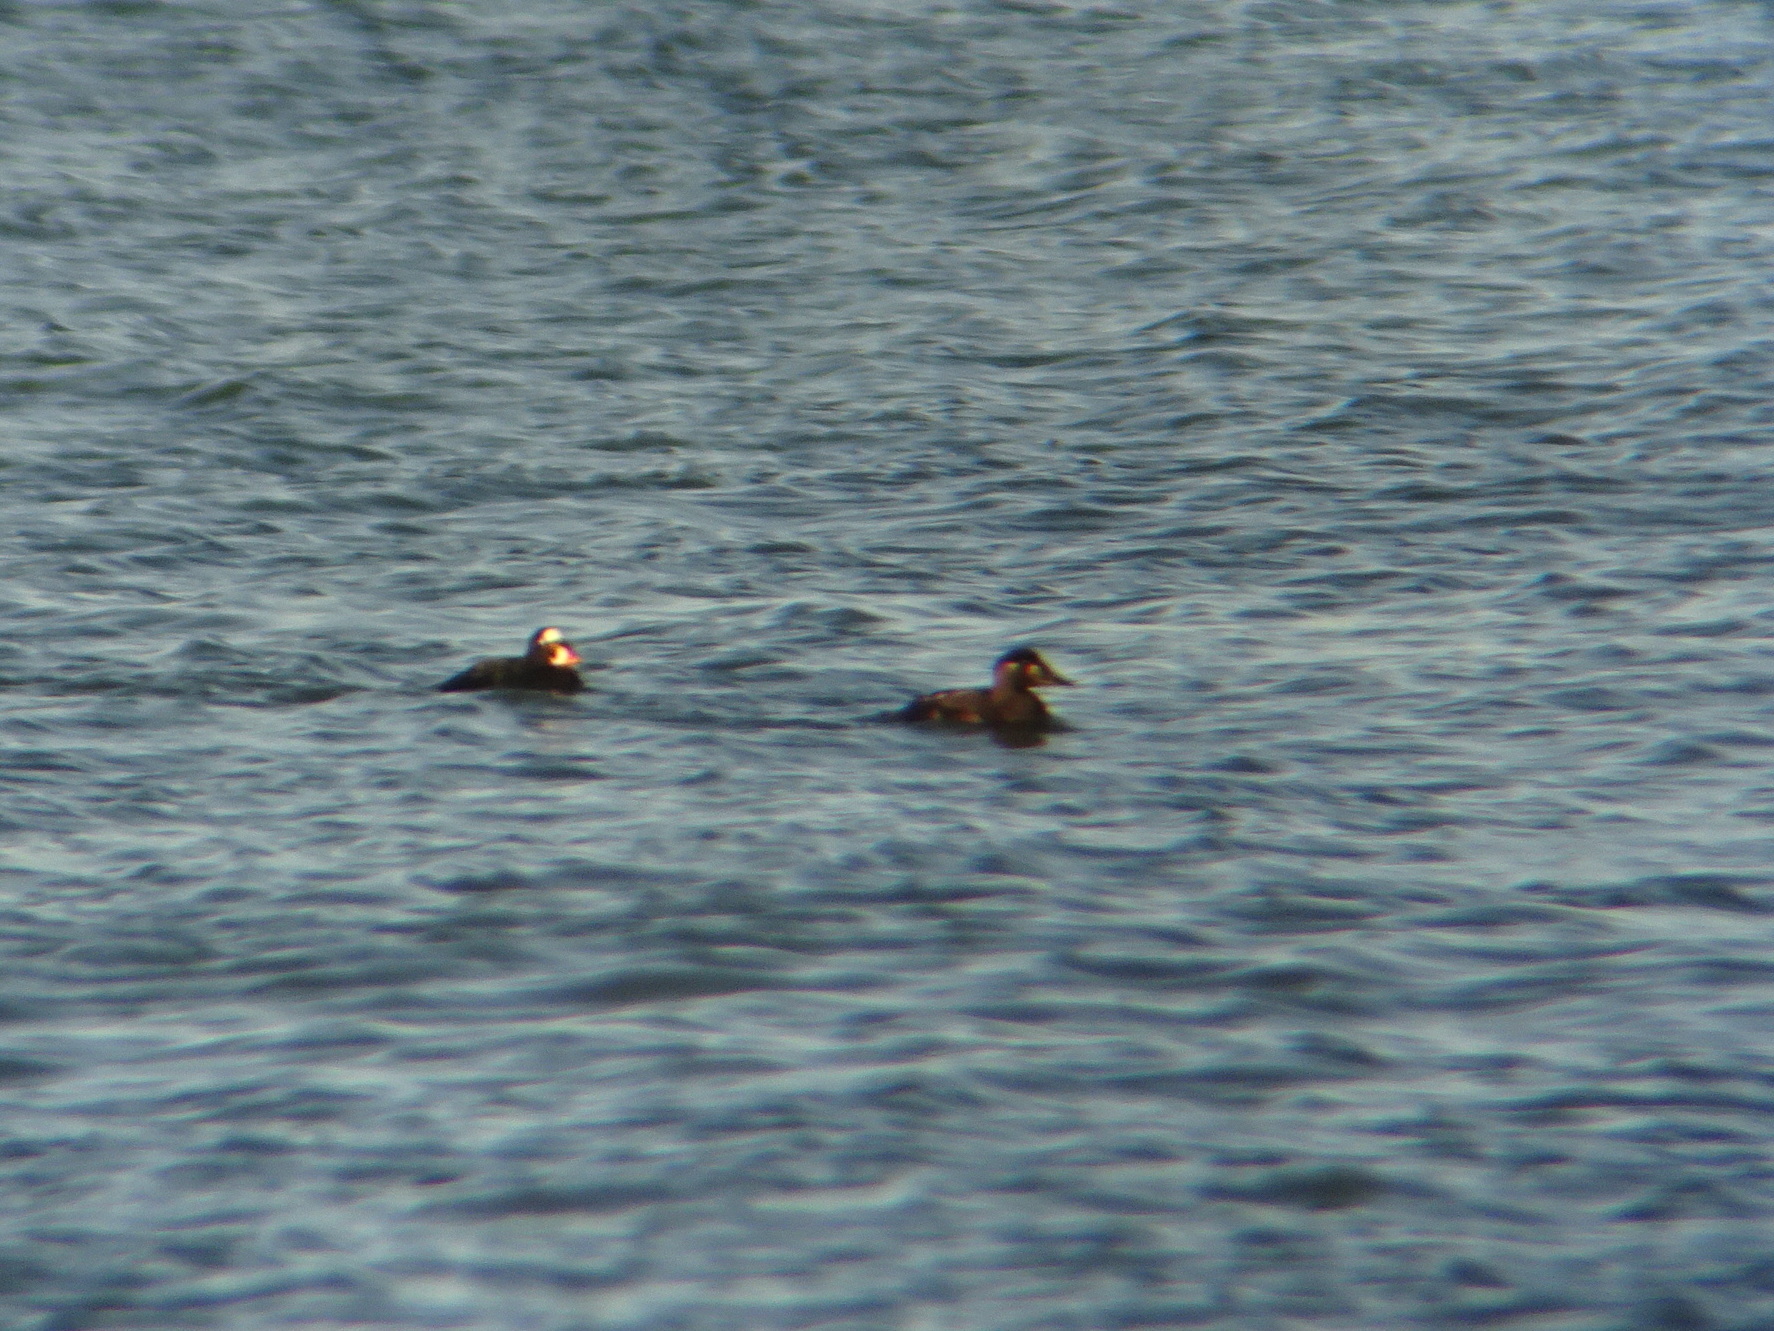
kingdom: Animalia
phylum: Chordata
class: Aves
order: Anseriformes
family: Anatidae
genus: Melanitta
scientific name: Melanitta perspicillata
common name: Surf scoter
